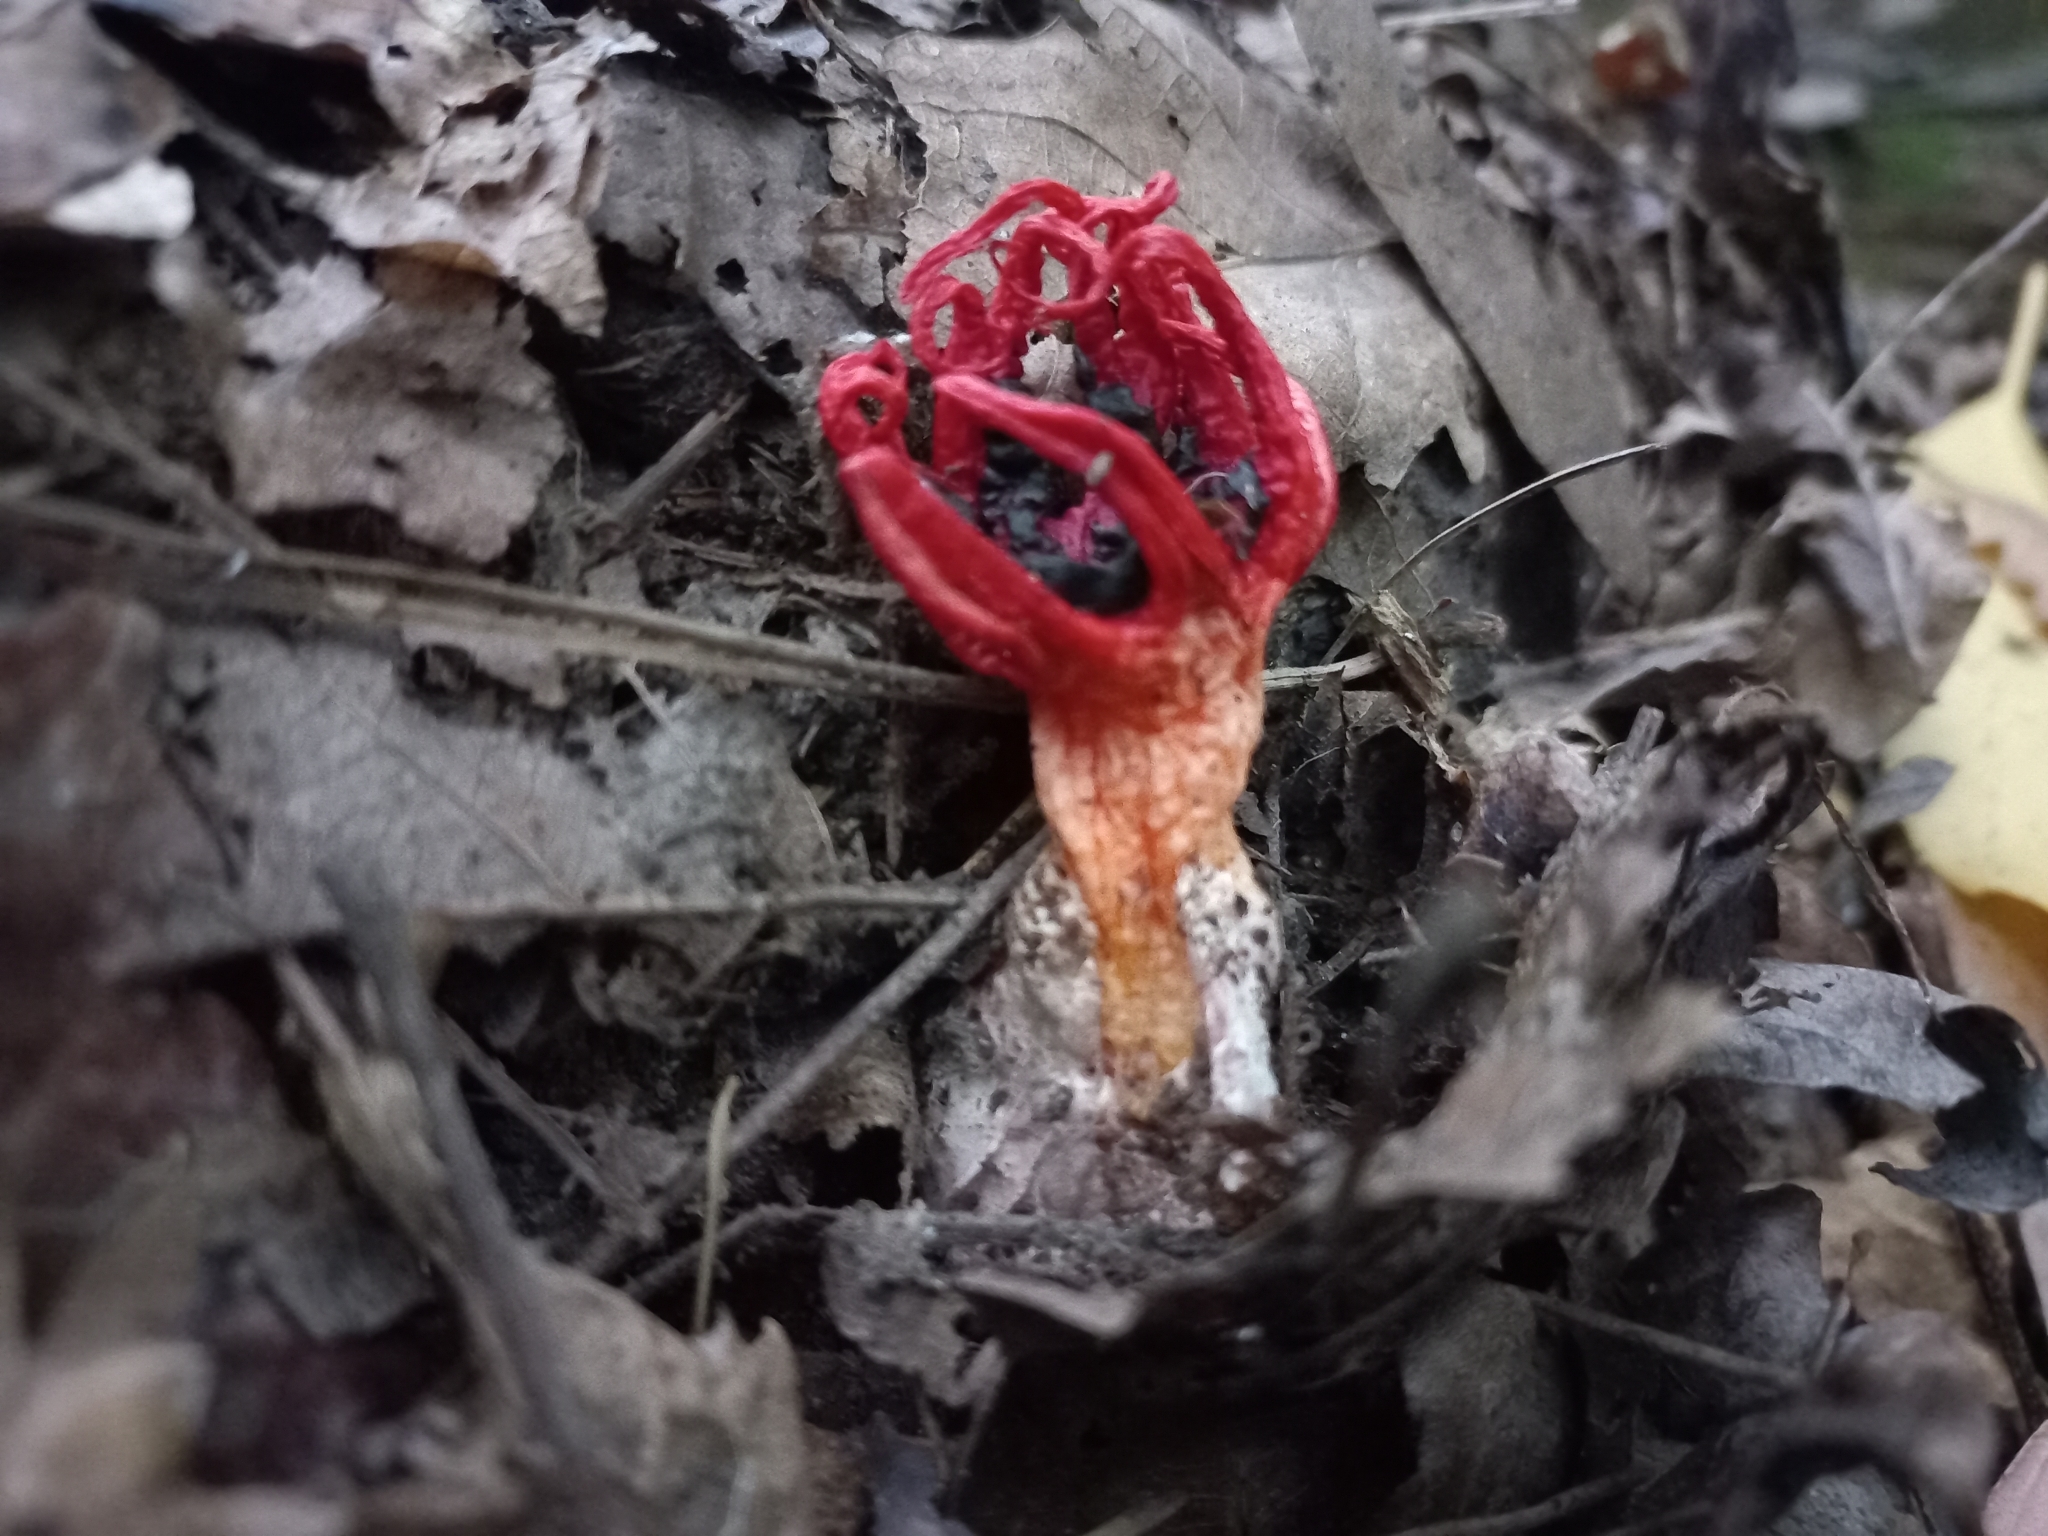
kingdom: Fungi
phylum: Basidiomycota
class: Agaricomycetes
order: Phallales
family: Phallaceae
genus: Aseroe
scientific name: Aseroe rubra
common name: Starfish fungus
